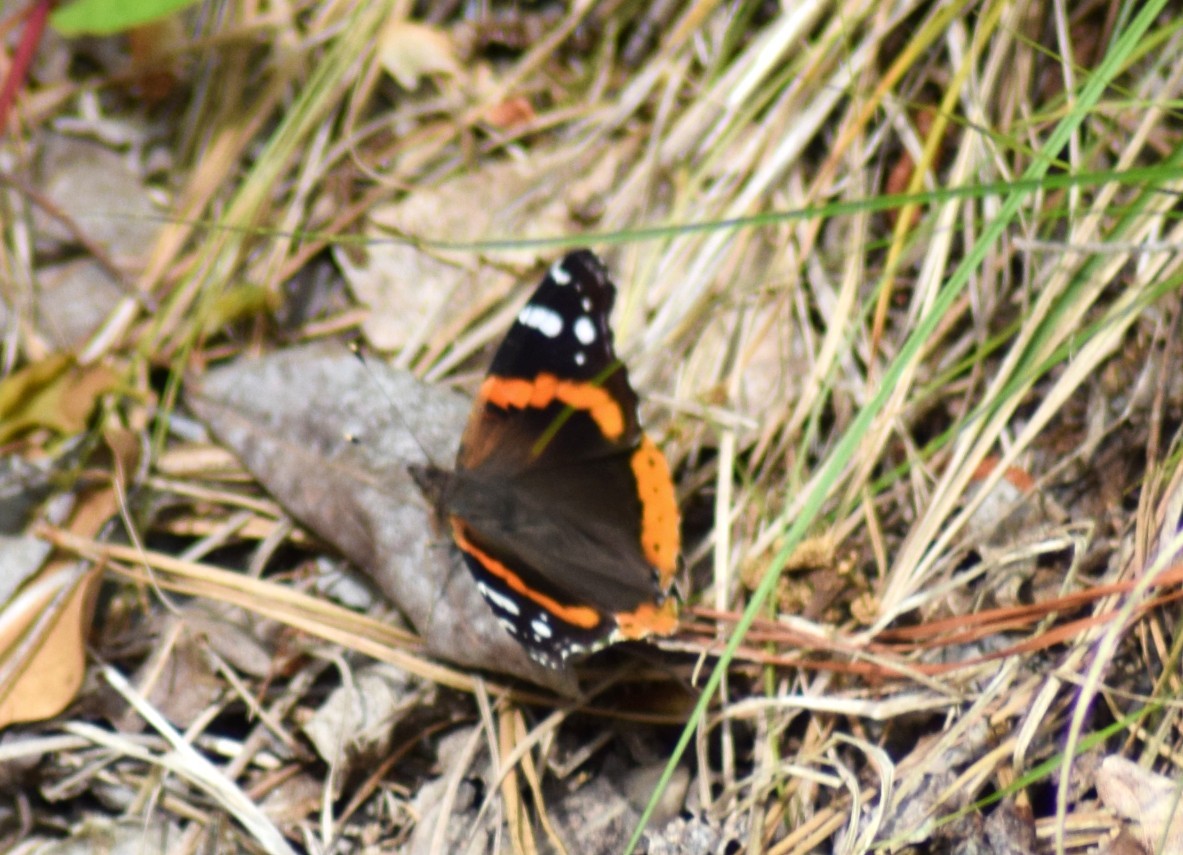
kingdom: Animalia
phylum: Arthropoda
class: Insecta
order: Lepidoptera
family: Nymphalidae
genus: Vanessa
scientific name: Vanessa atalanta
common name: Red admiral
